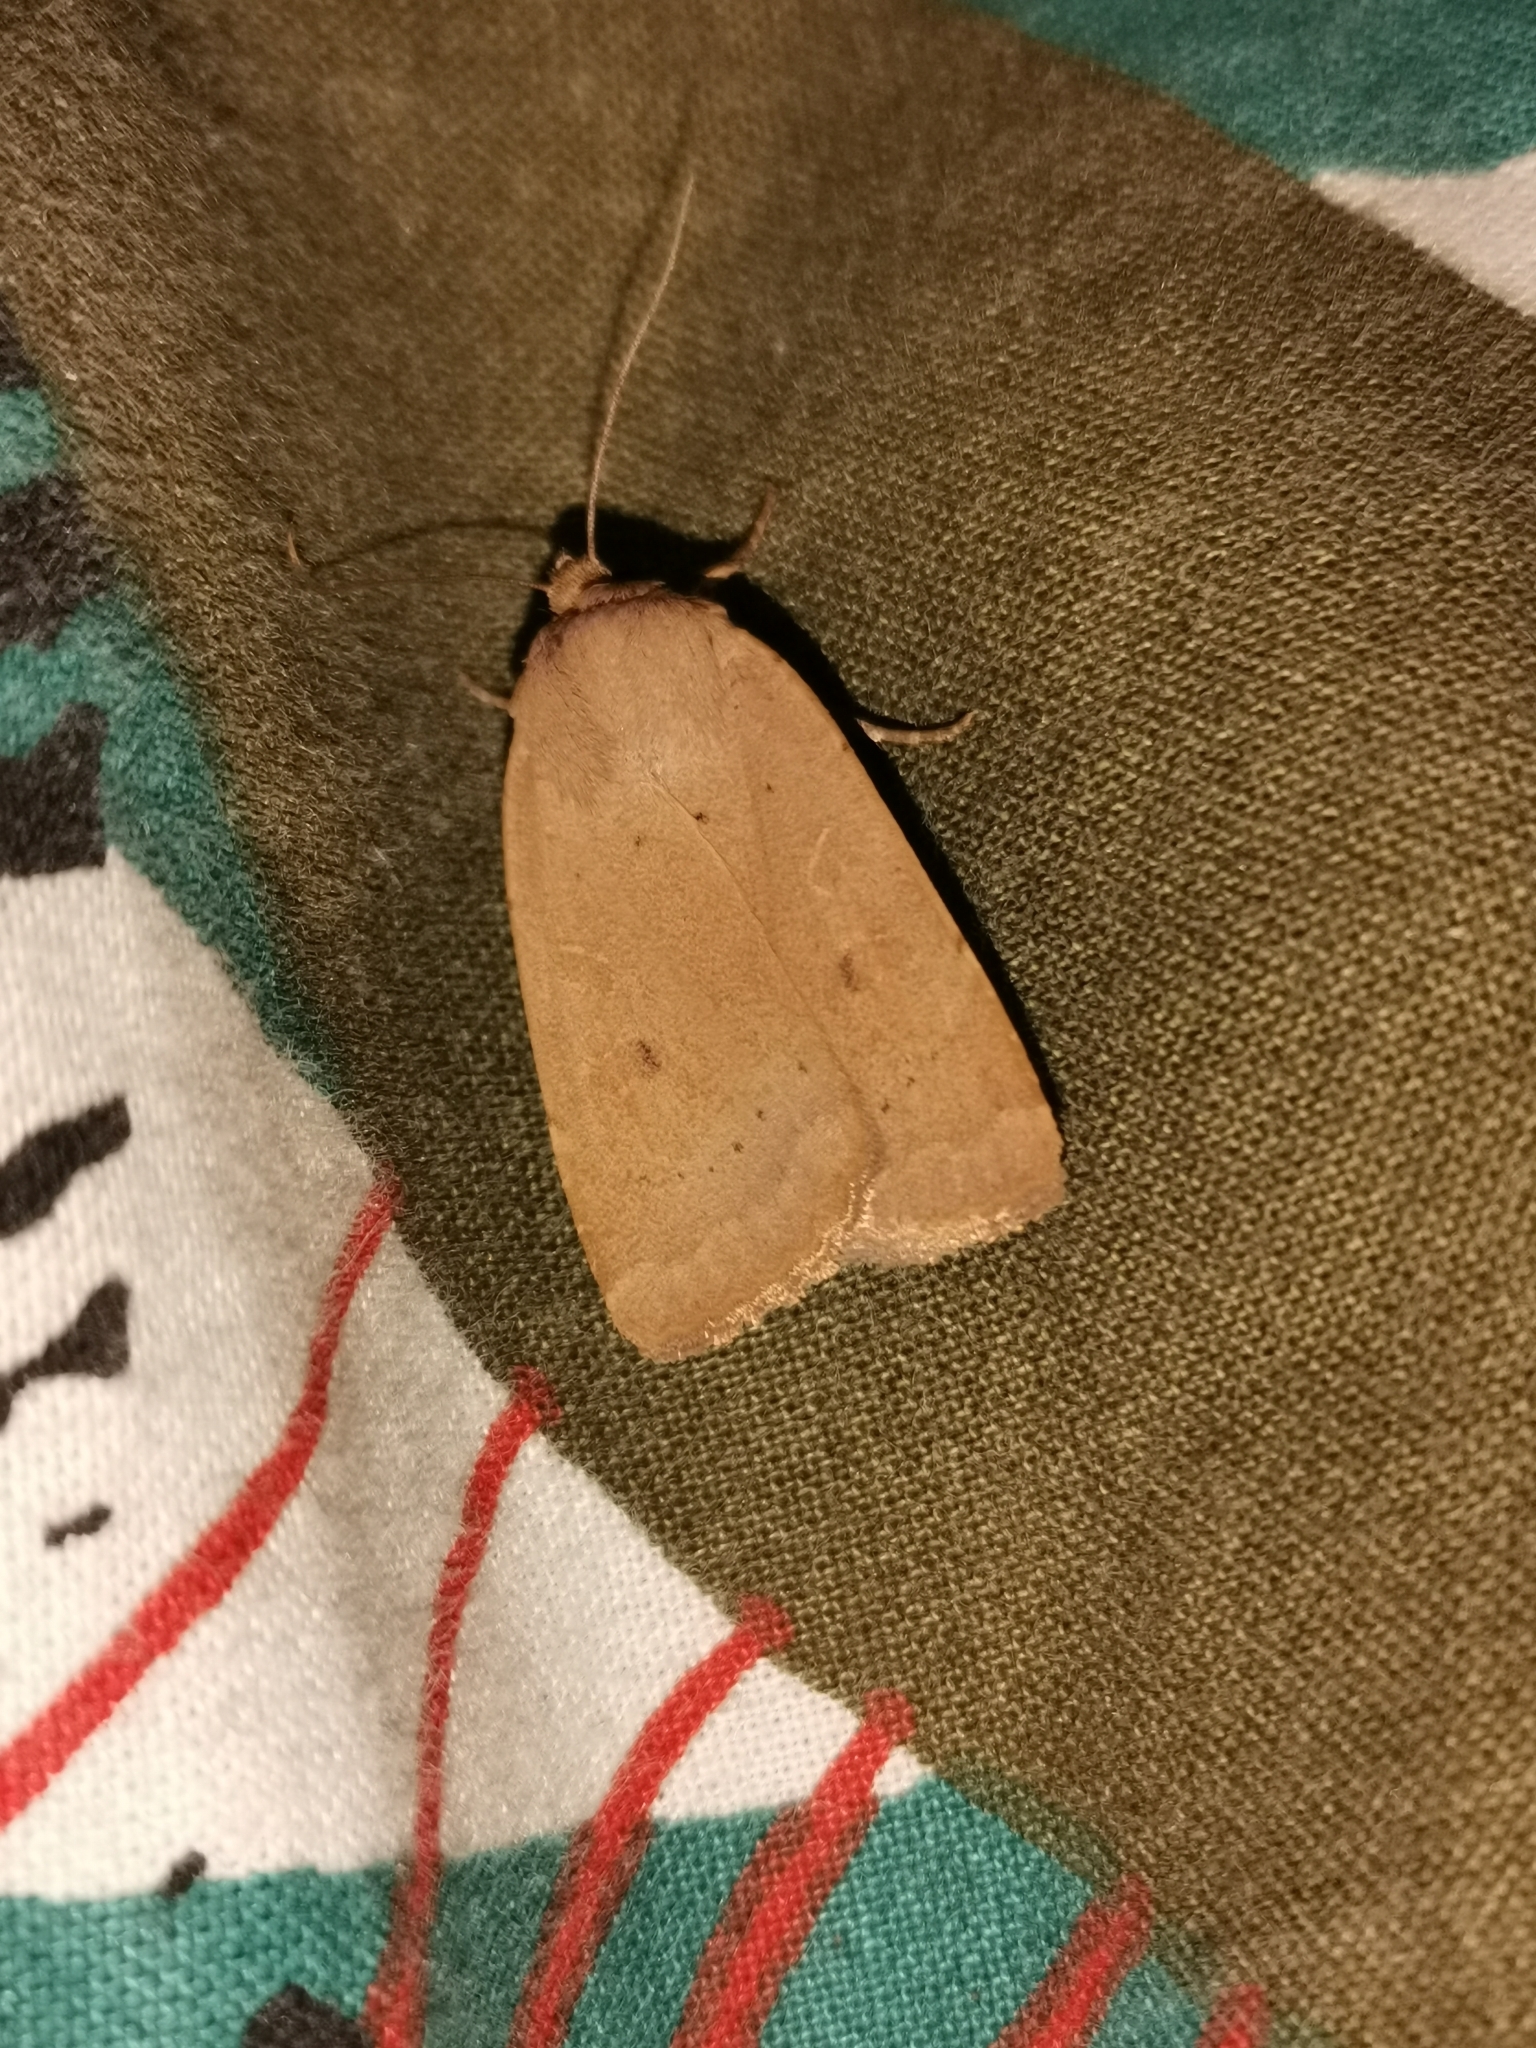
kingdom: Animalia
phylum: Arthropoda
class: Insecta
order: Lepidoptera
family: Noctuidae
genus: Noctua
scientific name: Noctua comes
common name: Lesser yellow underwing
